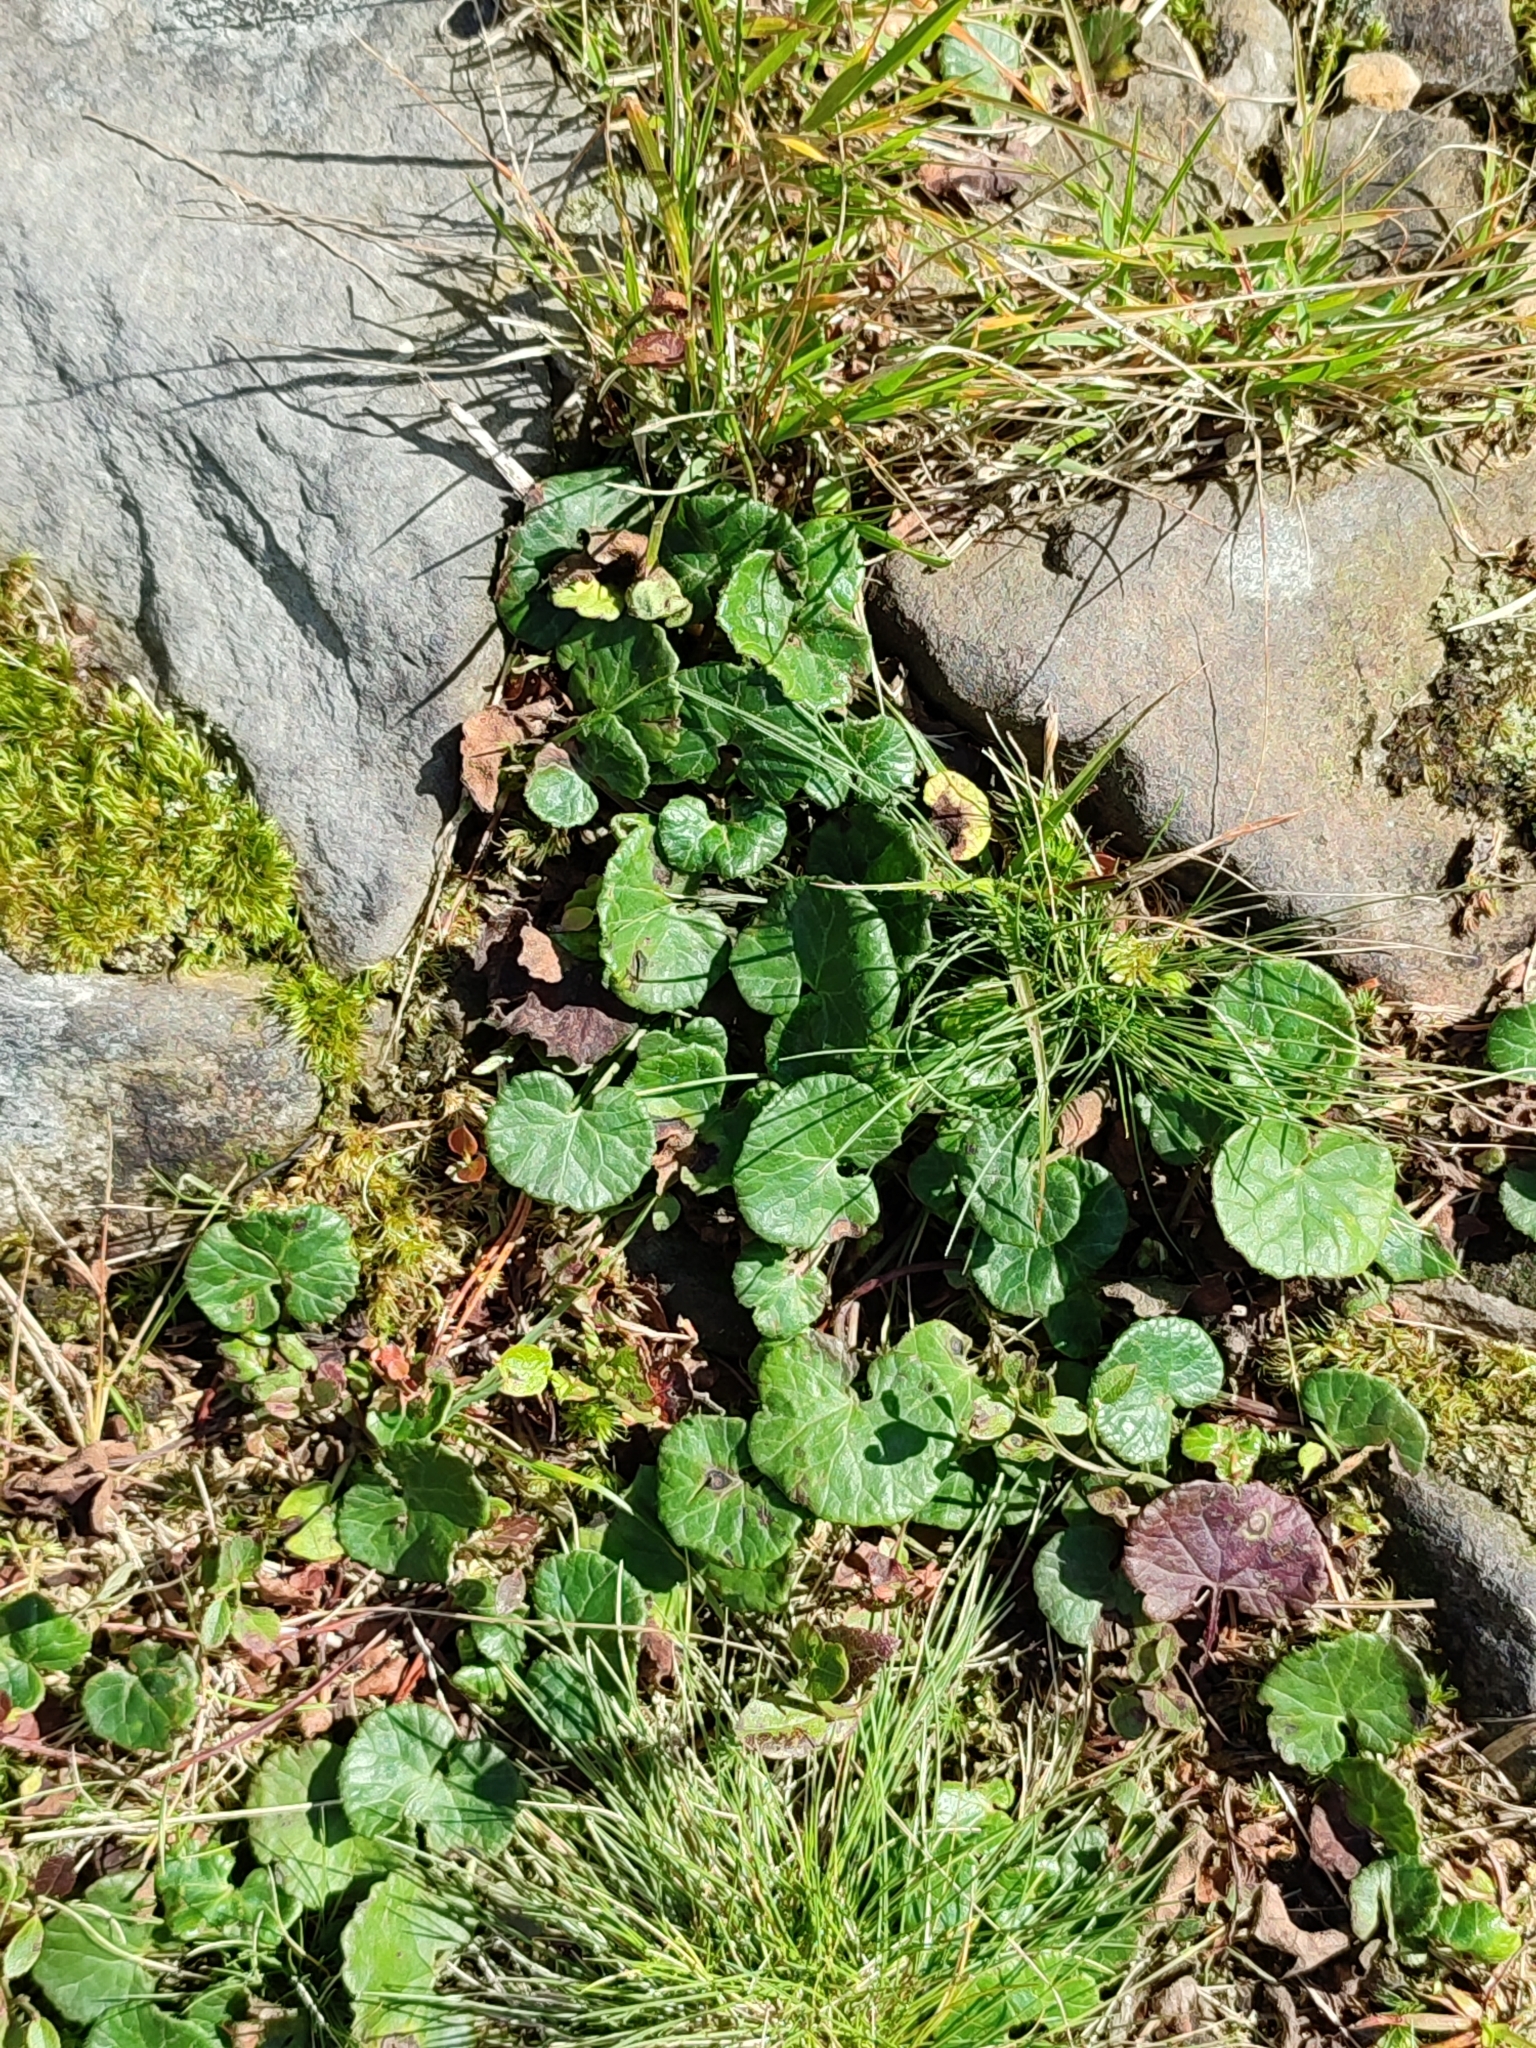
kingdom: Plantae
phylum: Tracheophyta
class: Magnoliopsida
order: Asterales
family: Asteraceae
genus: Homogyne
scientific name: Homogyne alpina
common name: Purple colt's-foot
